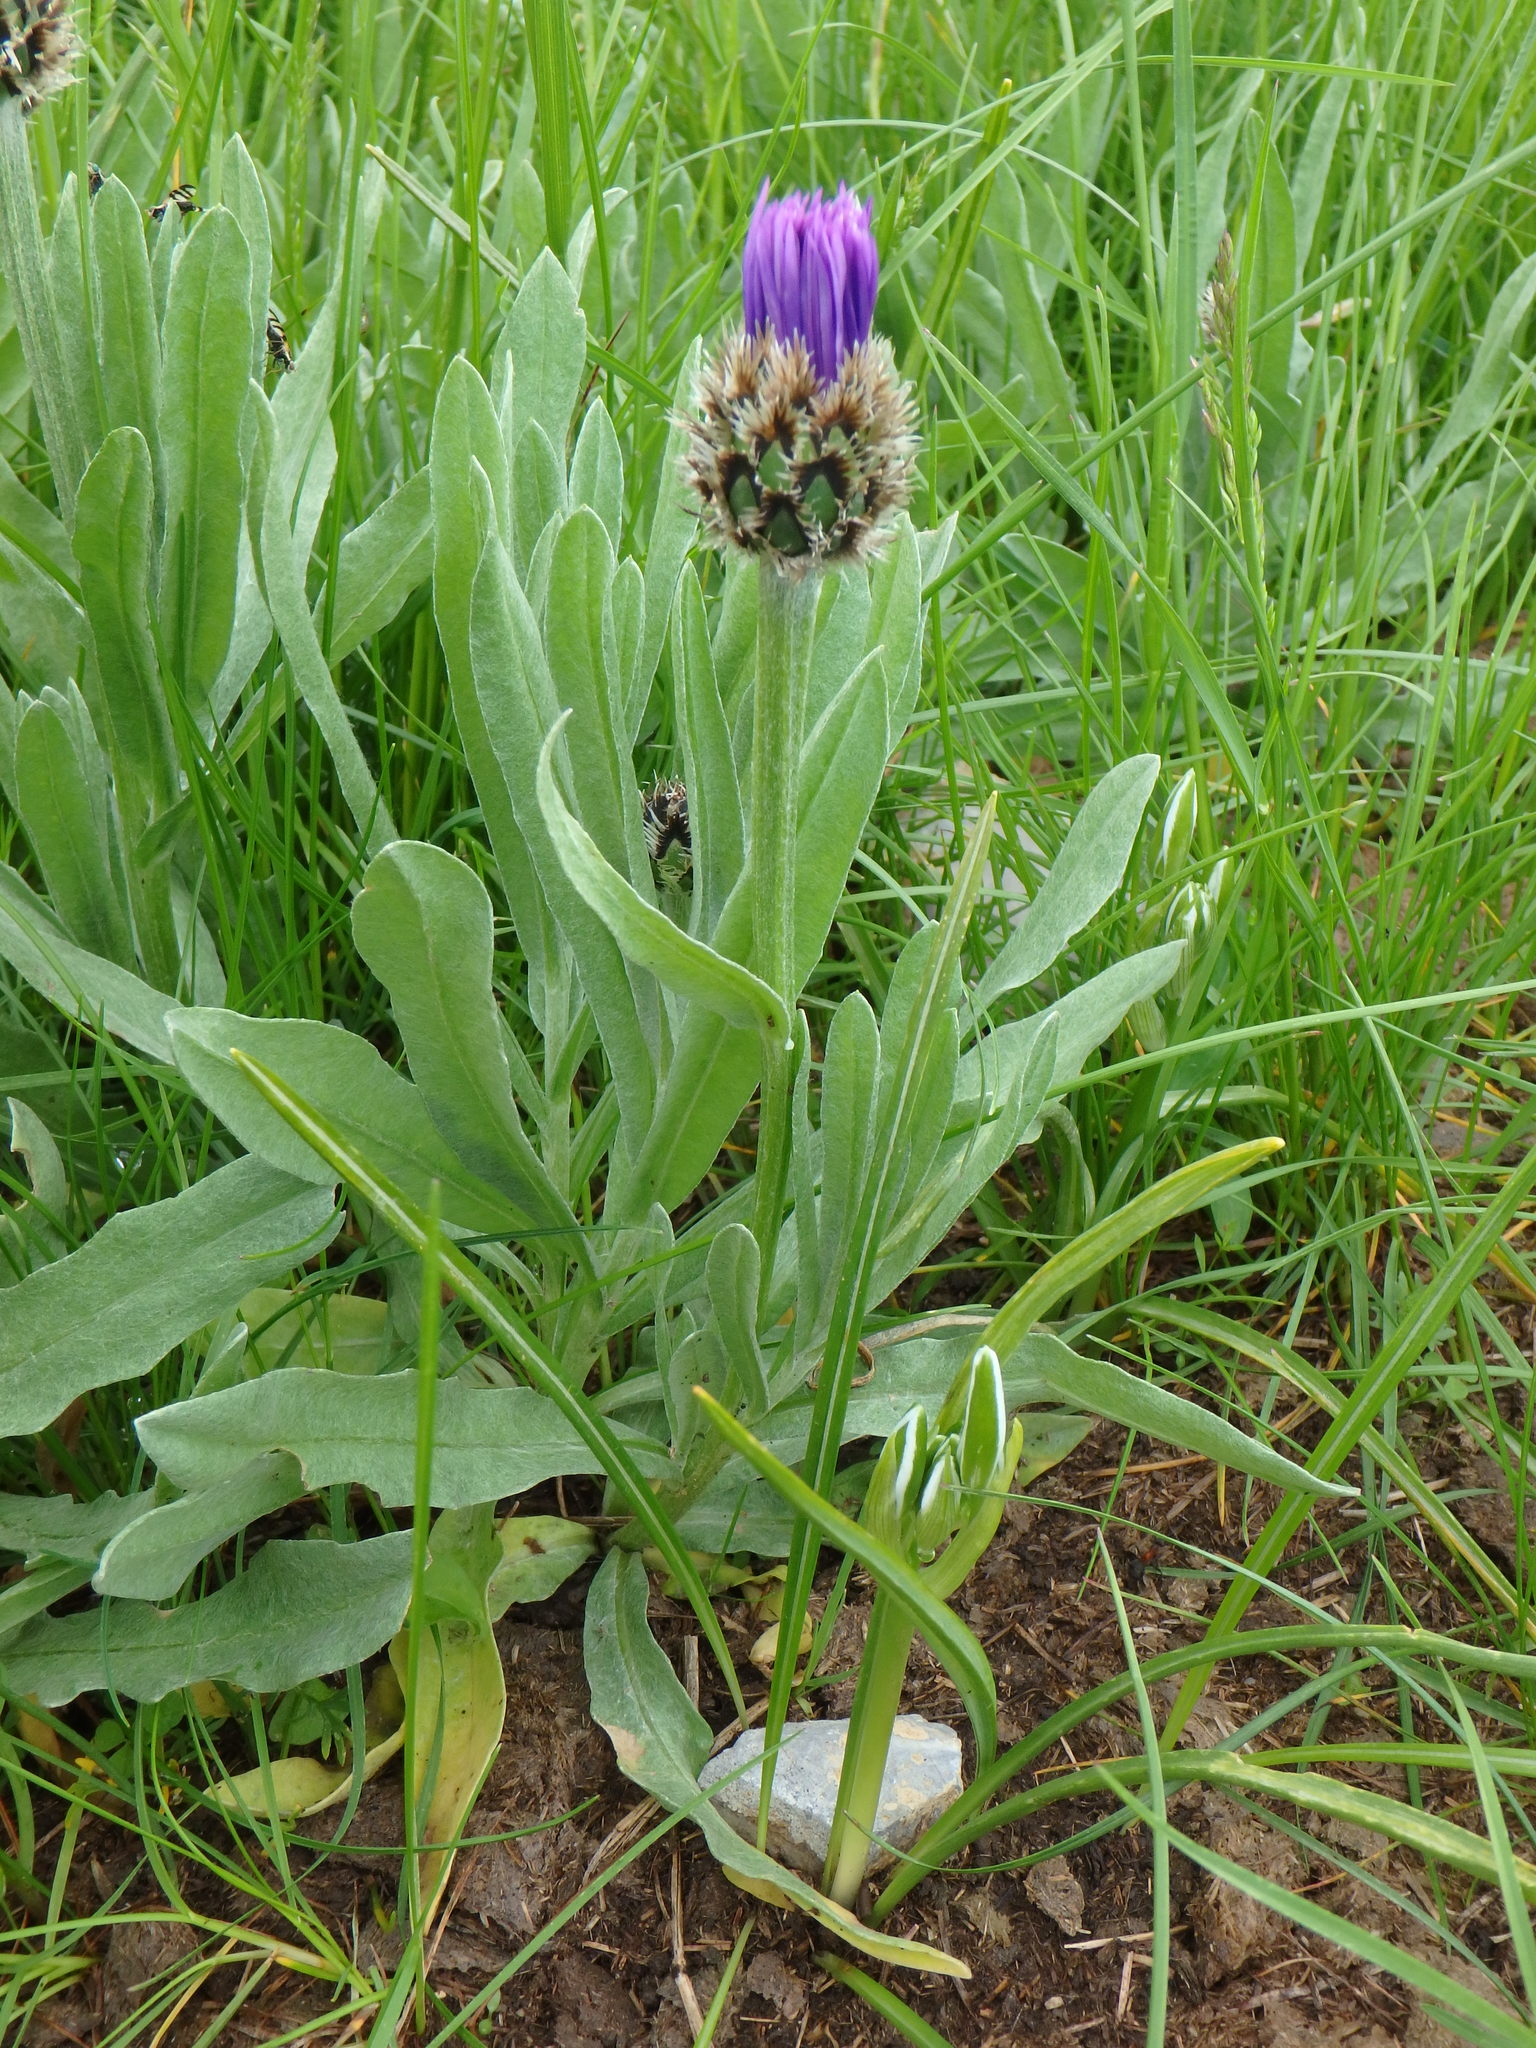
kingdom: Plantae
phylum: Tracheophyta
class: Magnoliopsida
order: Asterales
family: Asteraceae
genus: Centaurea
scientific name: Centaurea triumfettii
